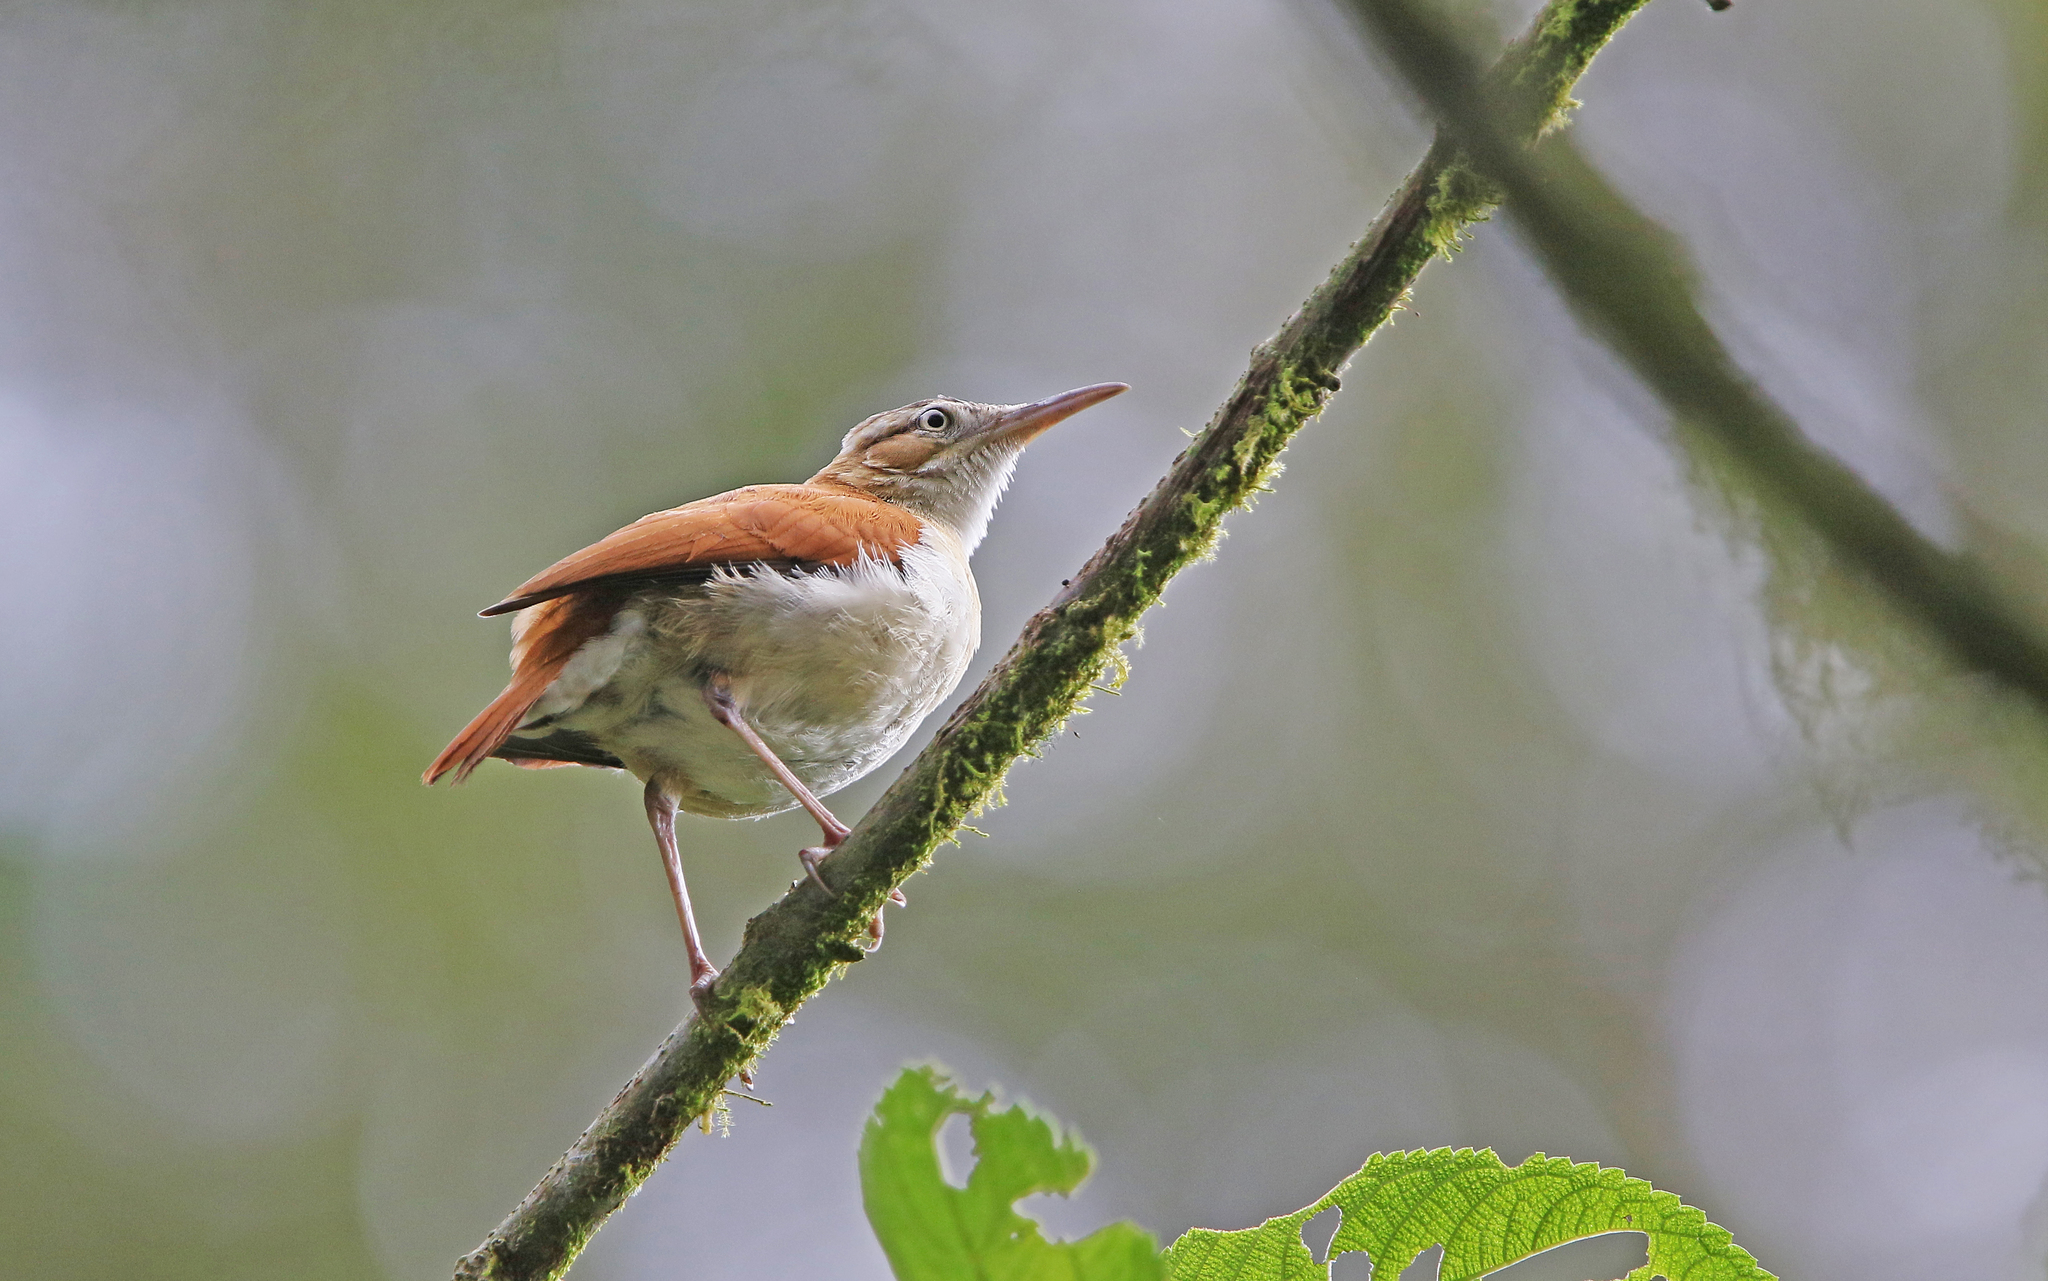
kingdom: Animalia
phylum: Chordata
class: Aves
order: Passeriformes
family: Furnariidae
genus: Furnarius
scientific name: Furnarius leucopus
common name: Pale-legged hornero
